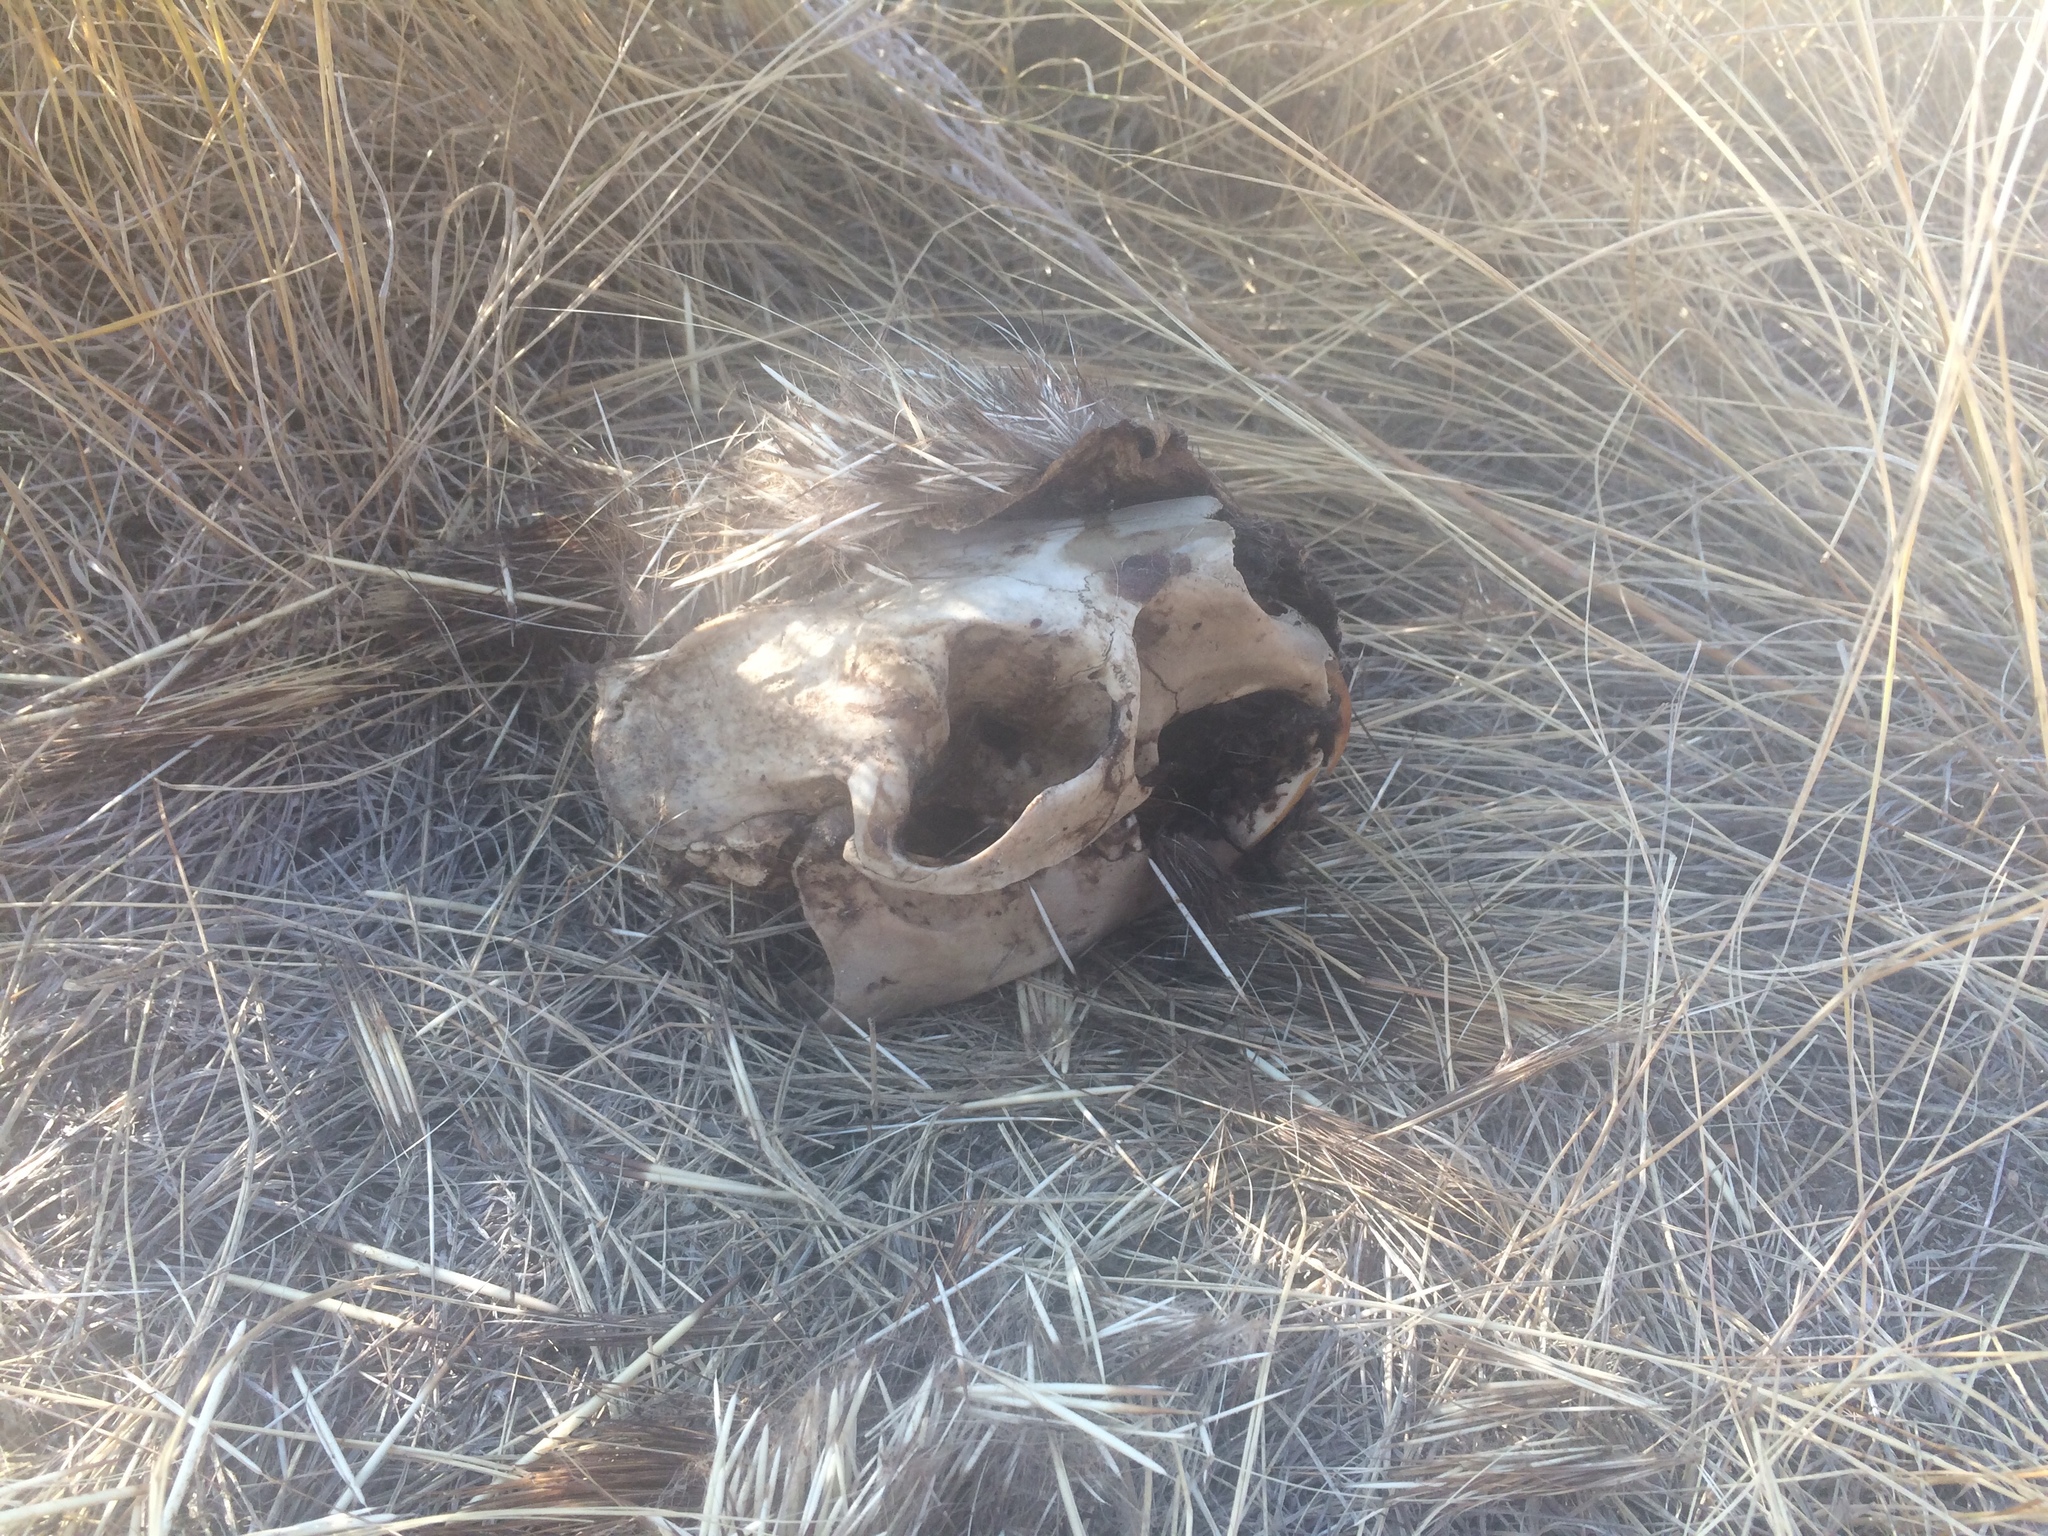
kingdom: Animalia
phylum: Chordata
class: Mammalia
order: Rodentia
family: Erethizontidae
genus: Erethizon
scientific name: Erethizon dorsatus
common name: North american porcupine
